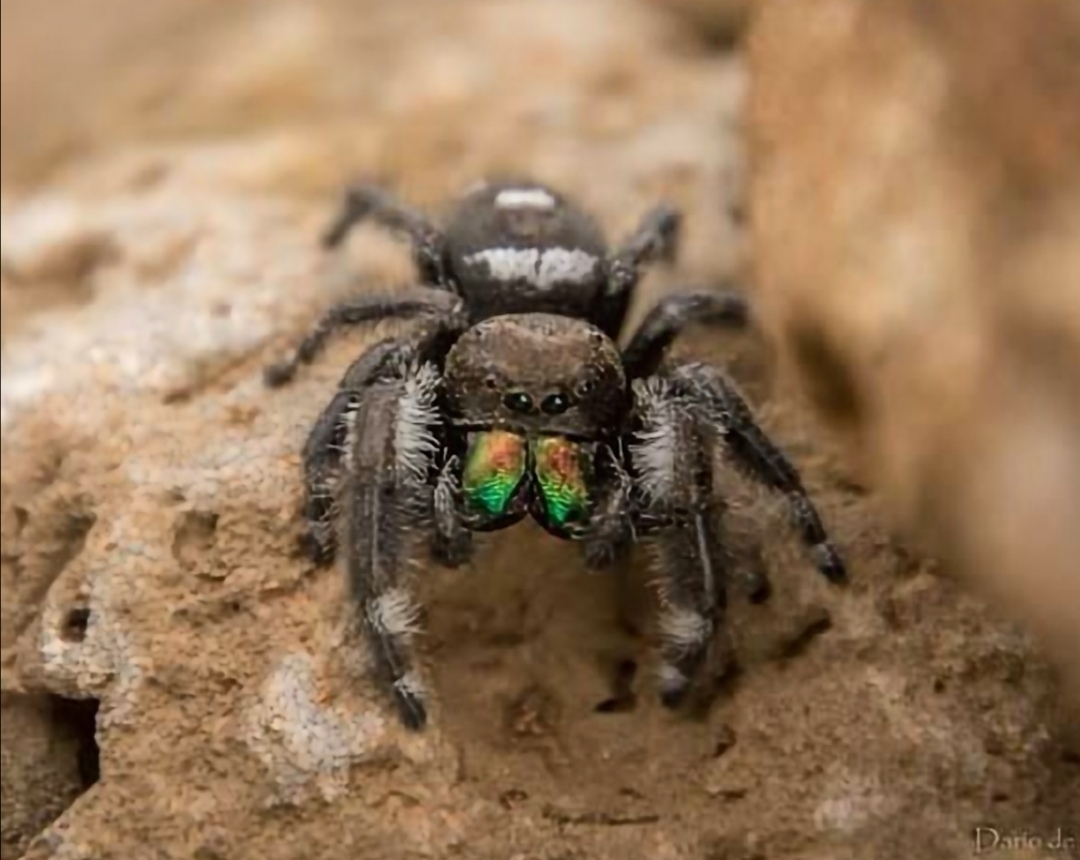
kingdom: Animalia
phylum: Arthropoda
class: Arachnida
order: Araneae
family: Salticidae
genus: Phidippus
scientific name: Phidippus regius
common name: Regal jumper
